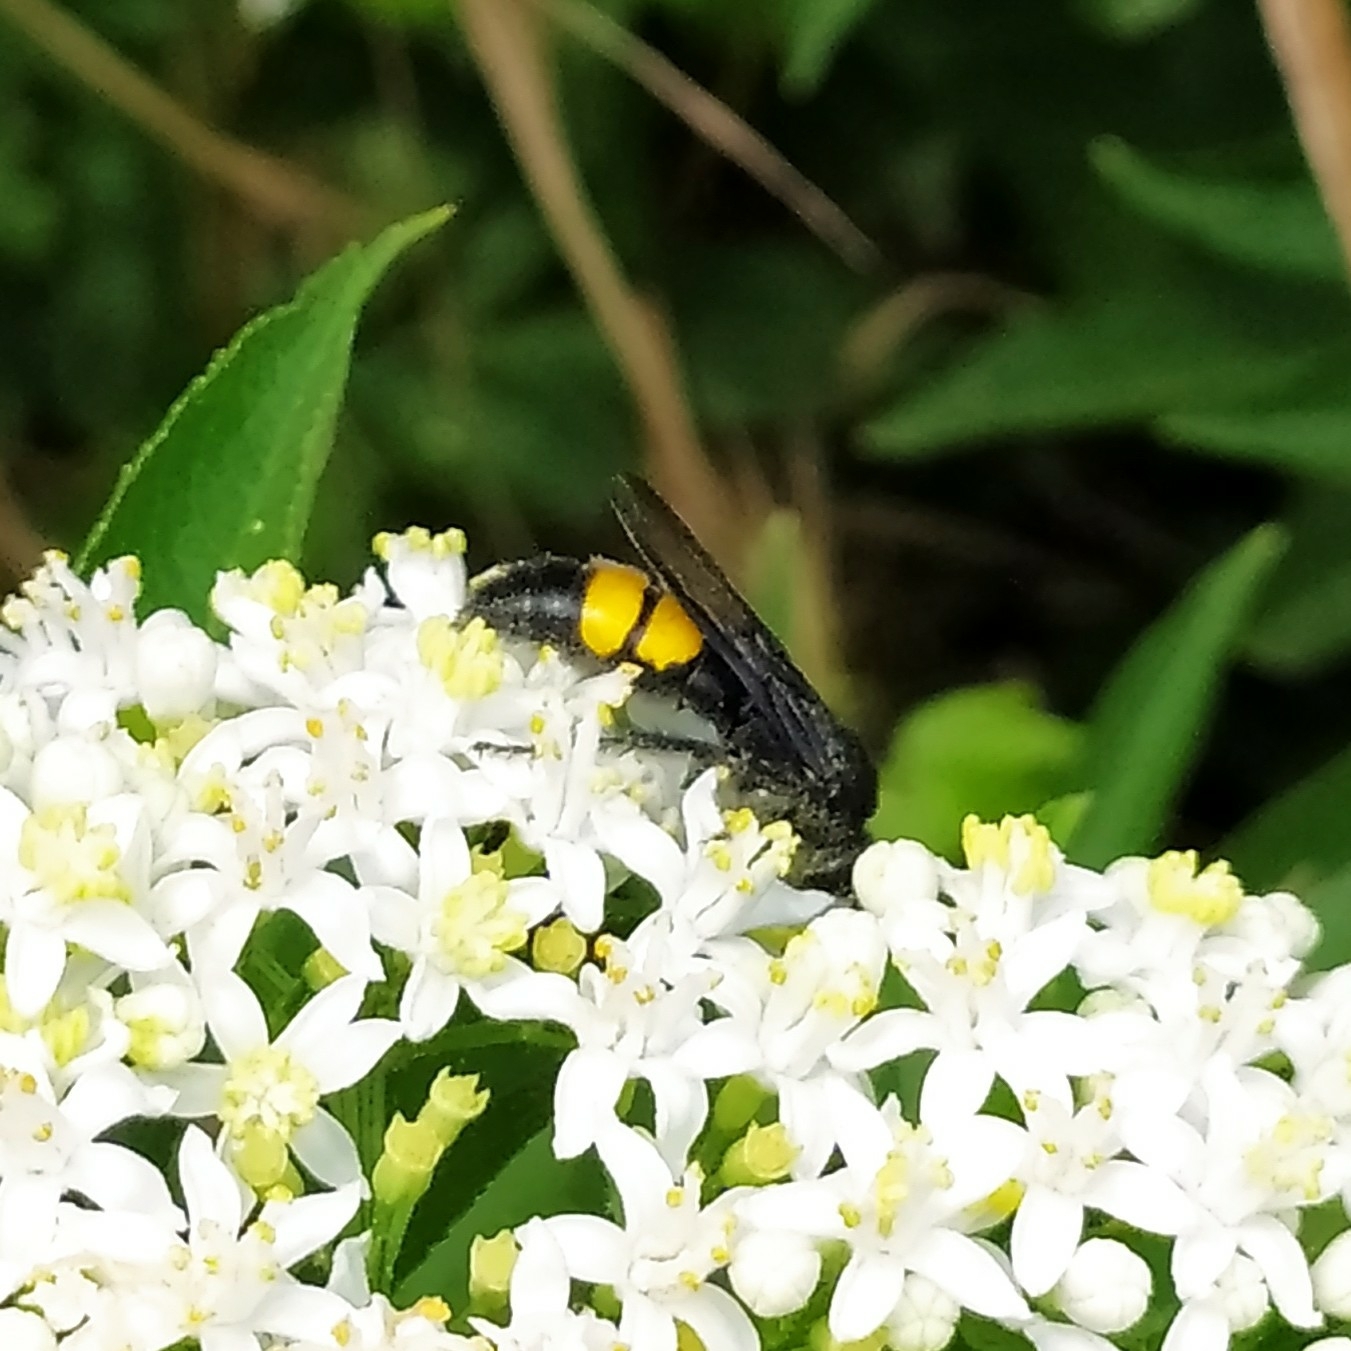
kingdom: Animalia
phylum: Arthropoda
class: Insecta
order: Hymenoptera
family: Scoliidae
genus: Scolia
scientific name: Scolia hirta
